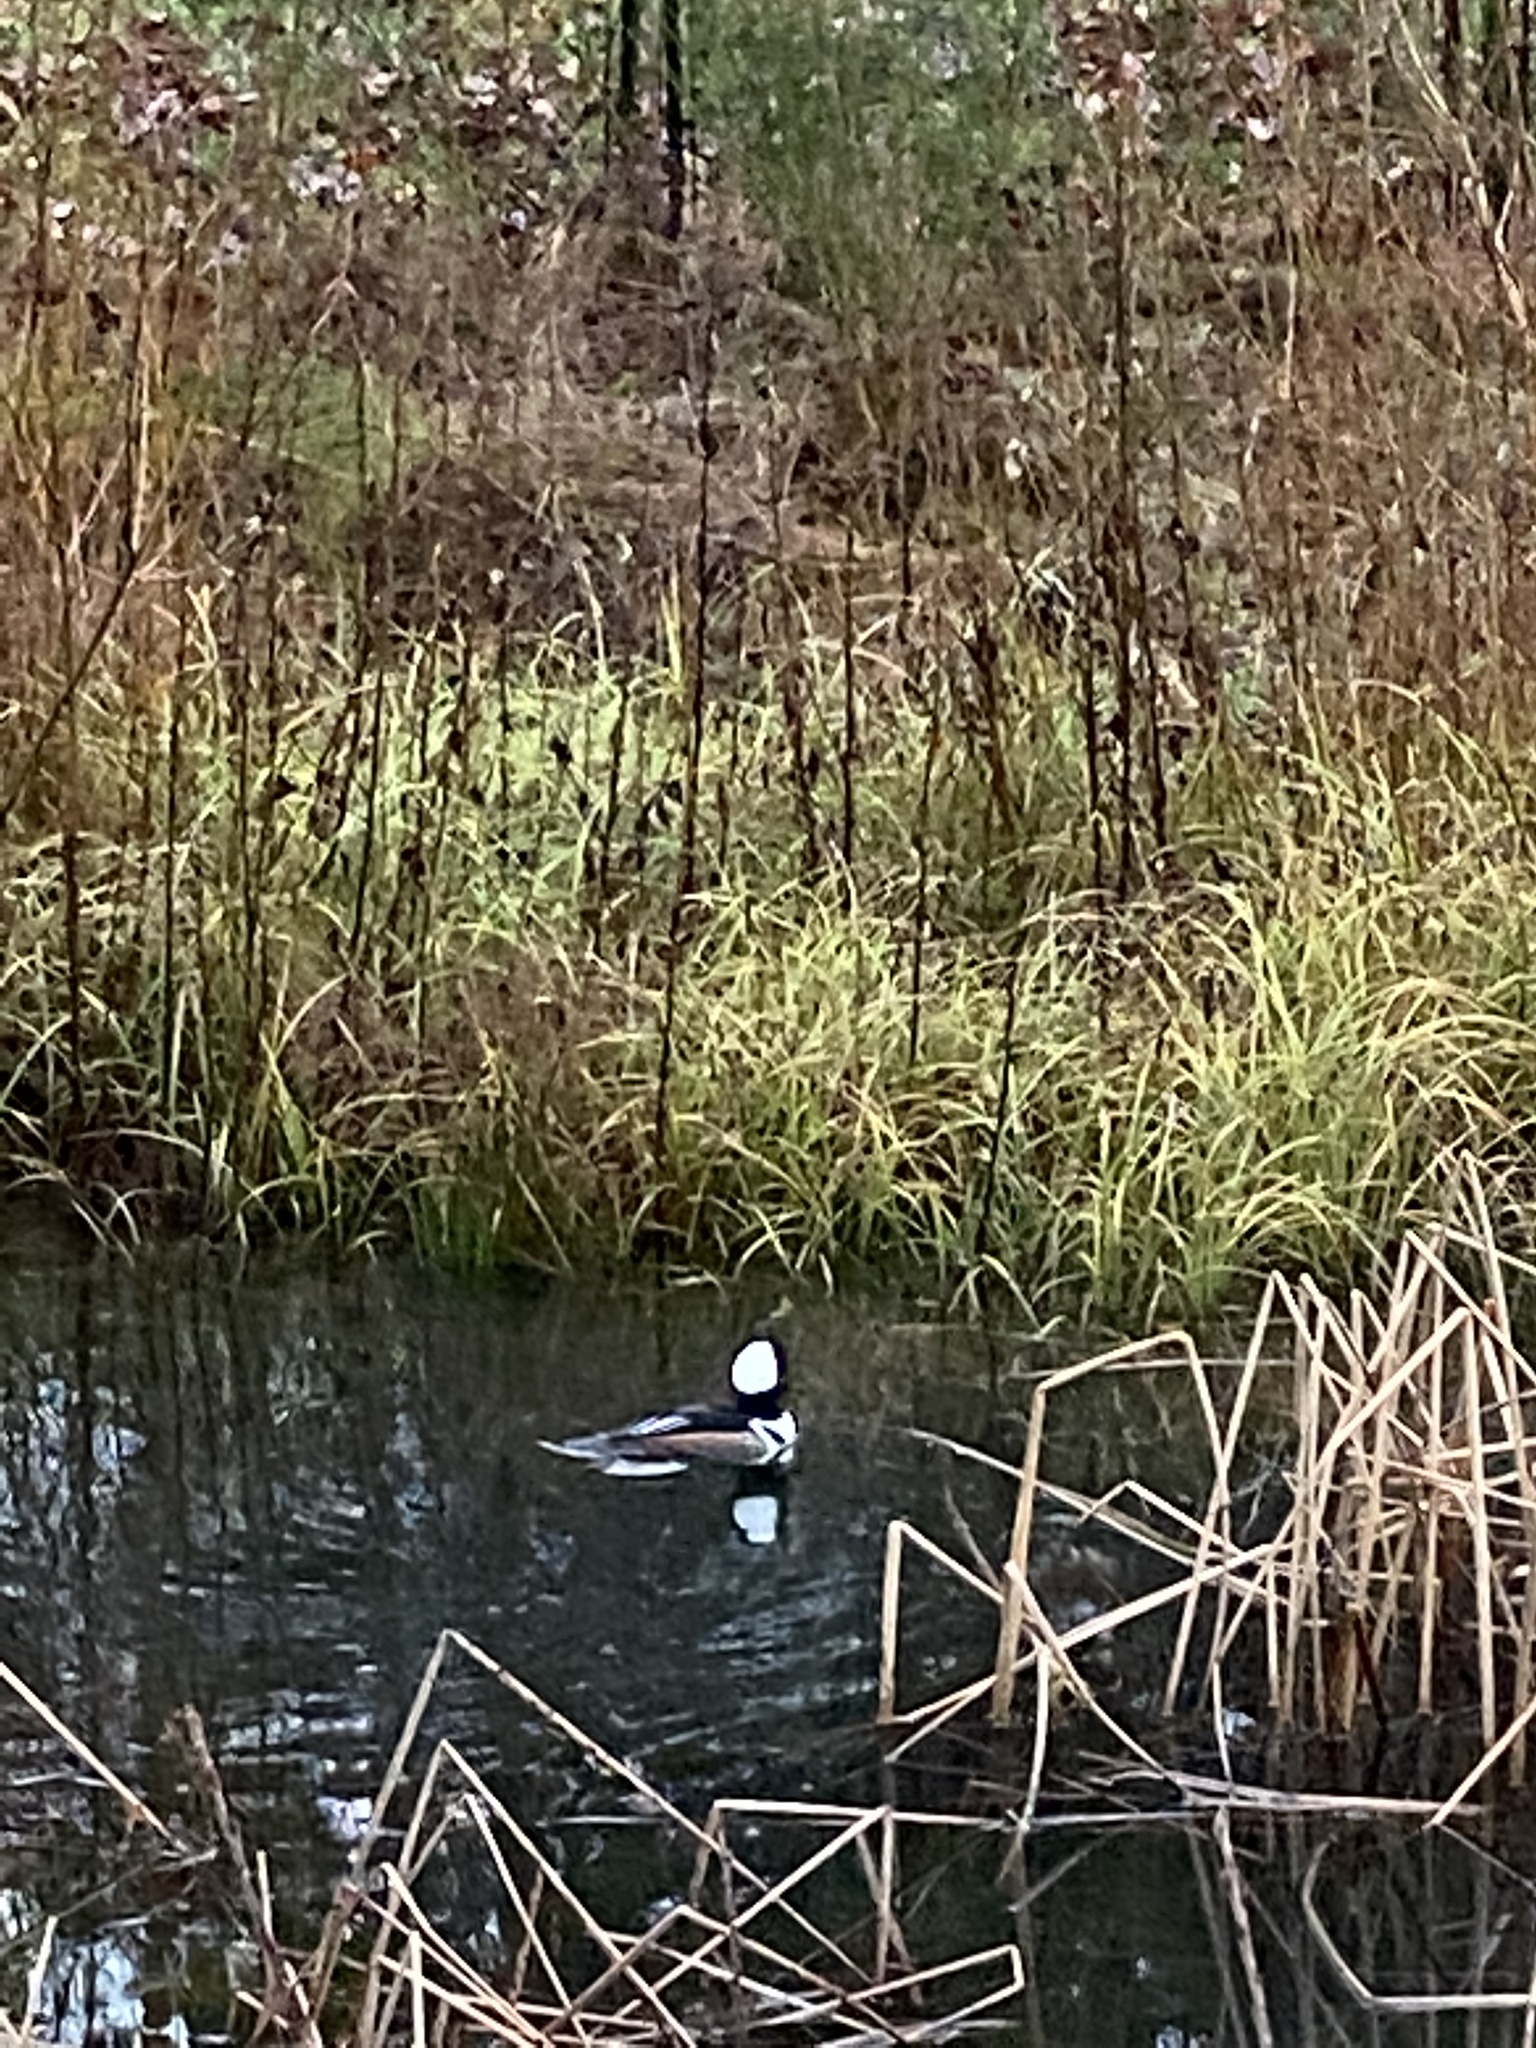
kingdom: Animalia
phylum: Chordata
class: Aves
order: Anseriformes
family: Anatidae
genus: Lophodytes
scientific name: Lophodytes cucullatus
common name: Hooded merganser
